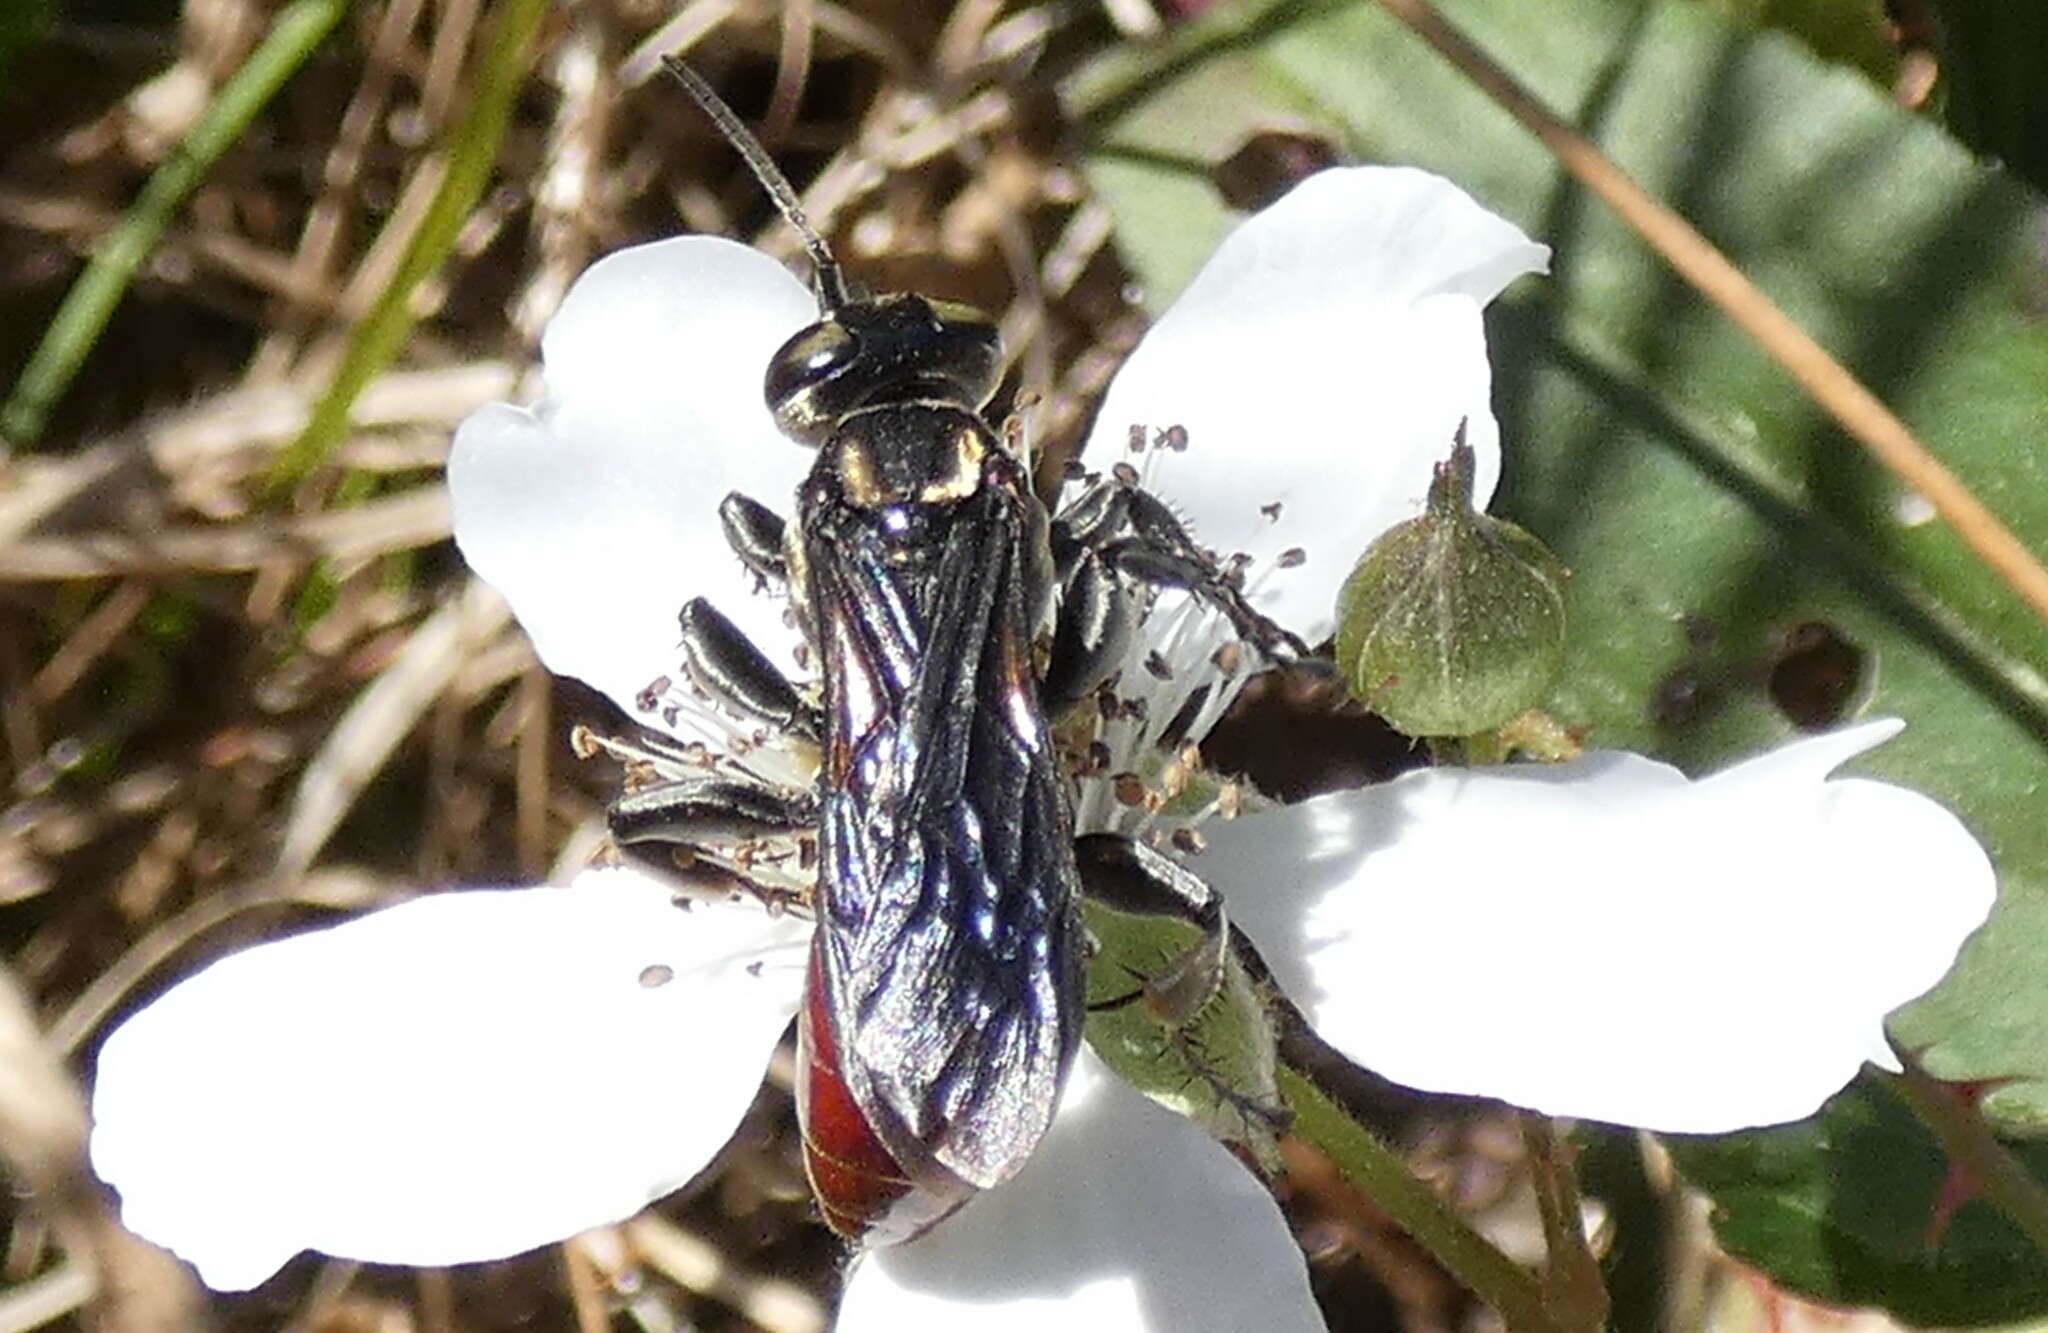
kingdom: Animalia
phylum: Arthropoda
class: Insecta
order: Hymenoptera
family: Crabronidae
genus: Larra
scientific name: Larra bicolor
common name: Wasp
